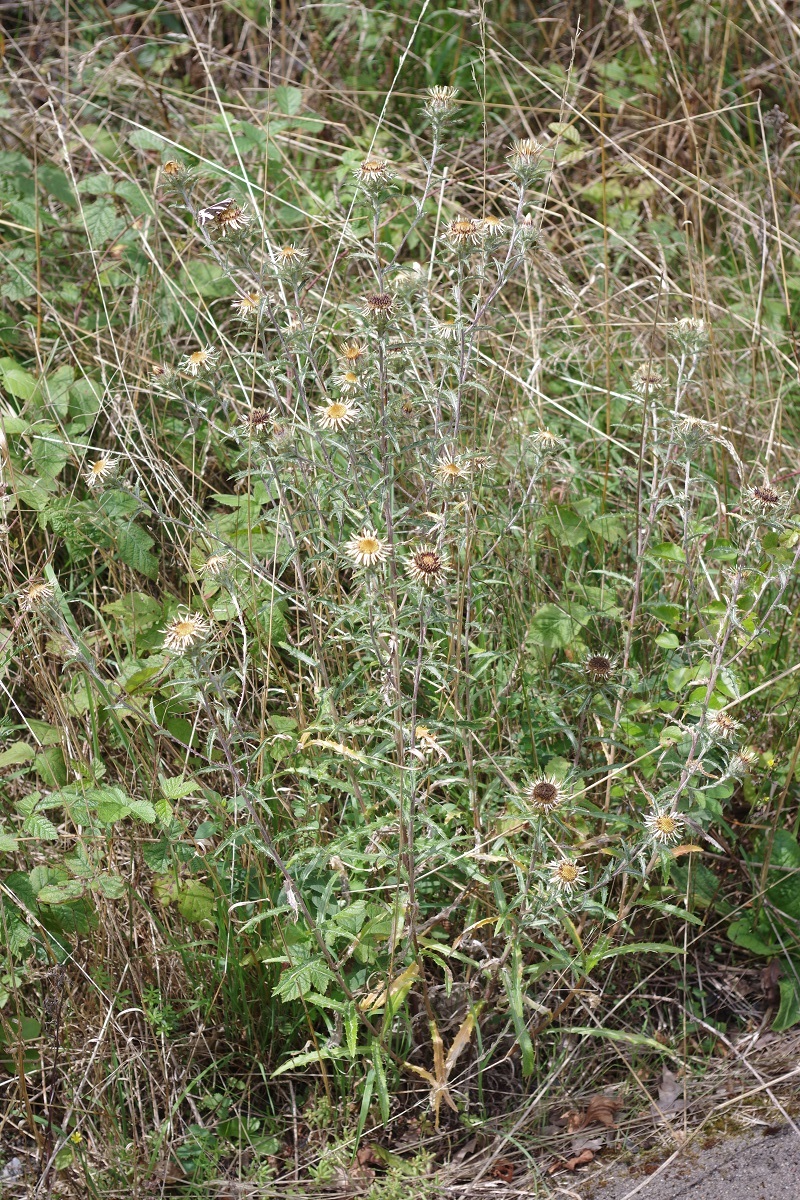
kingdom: Plantae
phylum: Tracheophyta
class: Magnoliopsida
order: Asterales
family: Asteraceae
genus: Carlina
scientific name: Carlina vulgaris
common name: Carline thistle
